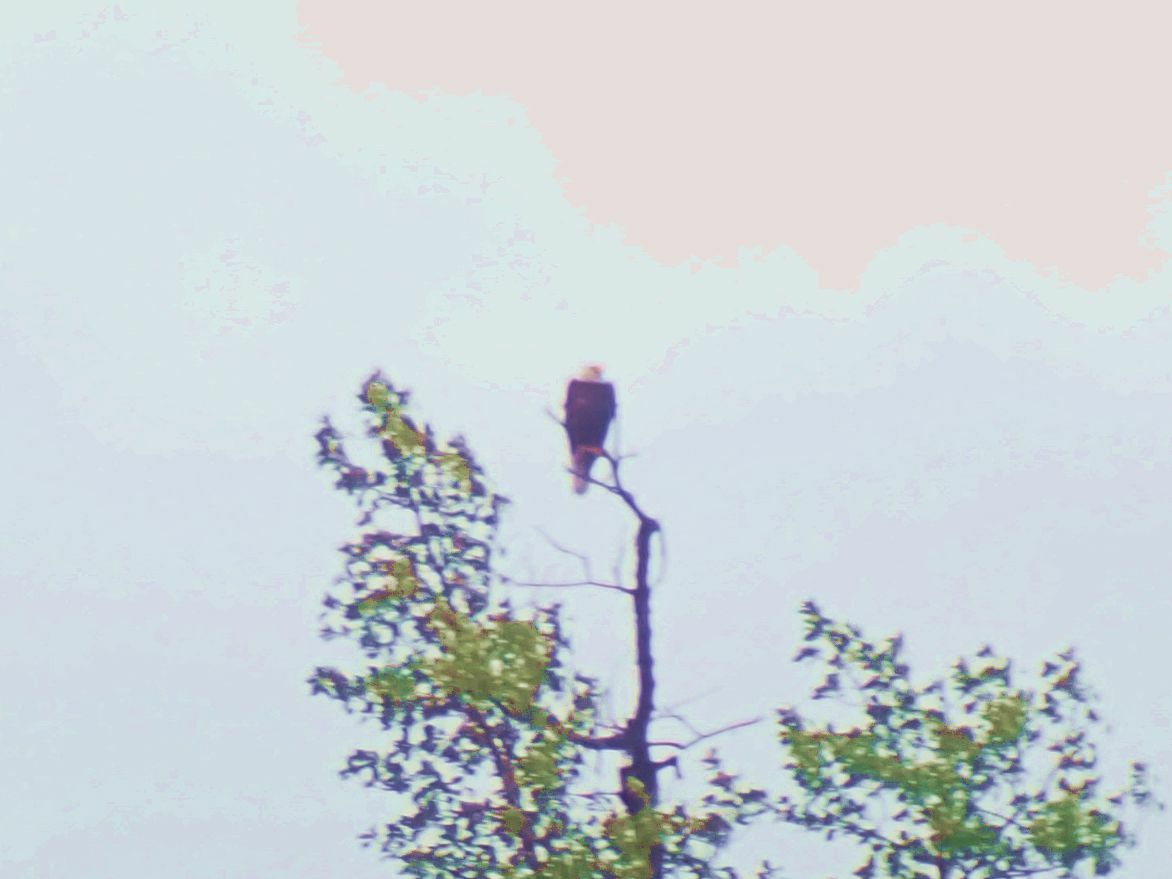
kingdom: Animalia
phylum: Chordata
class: Aves
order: Accipitriformes
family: Accipitridae
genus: Haliaeetus
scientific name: Haliaeetus leucocephalus
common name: Bald eagle
